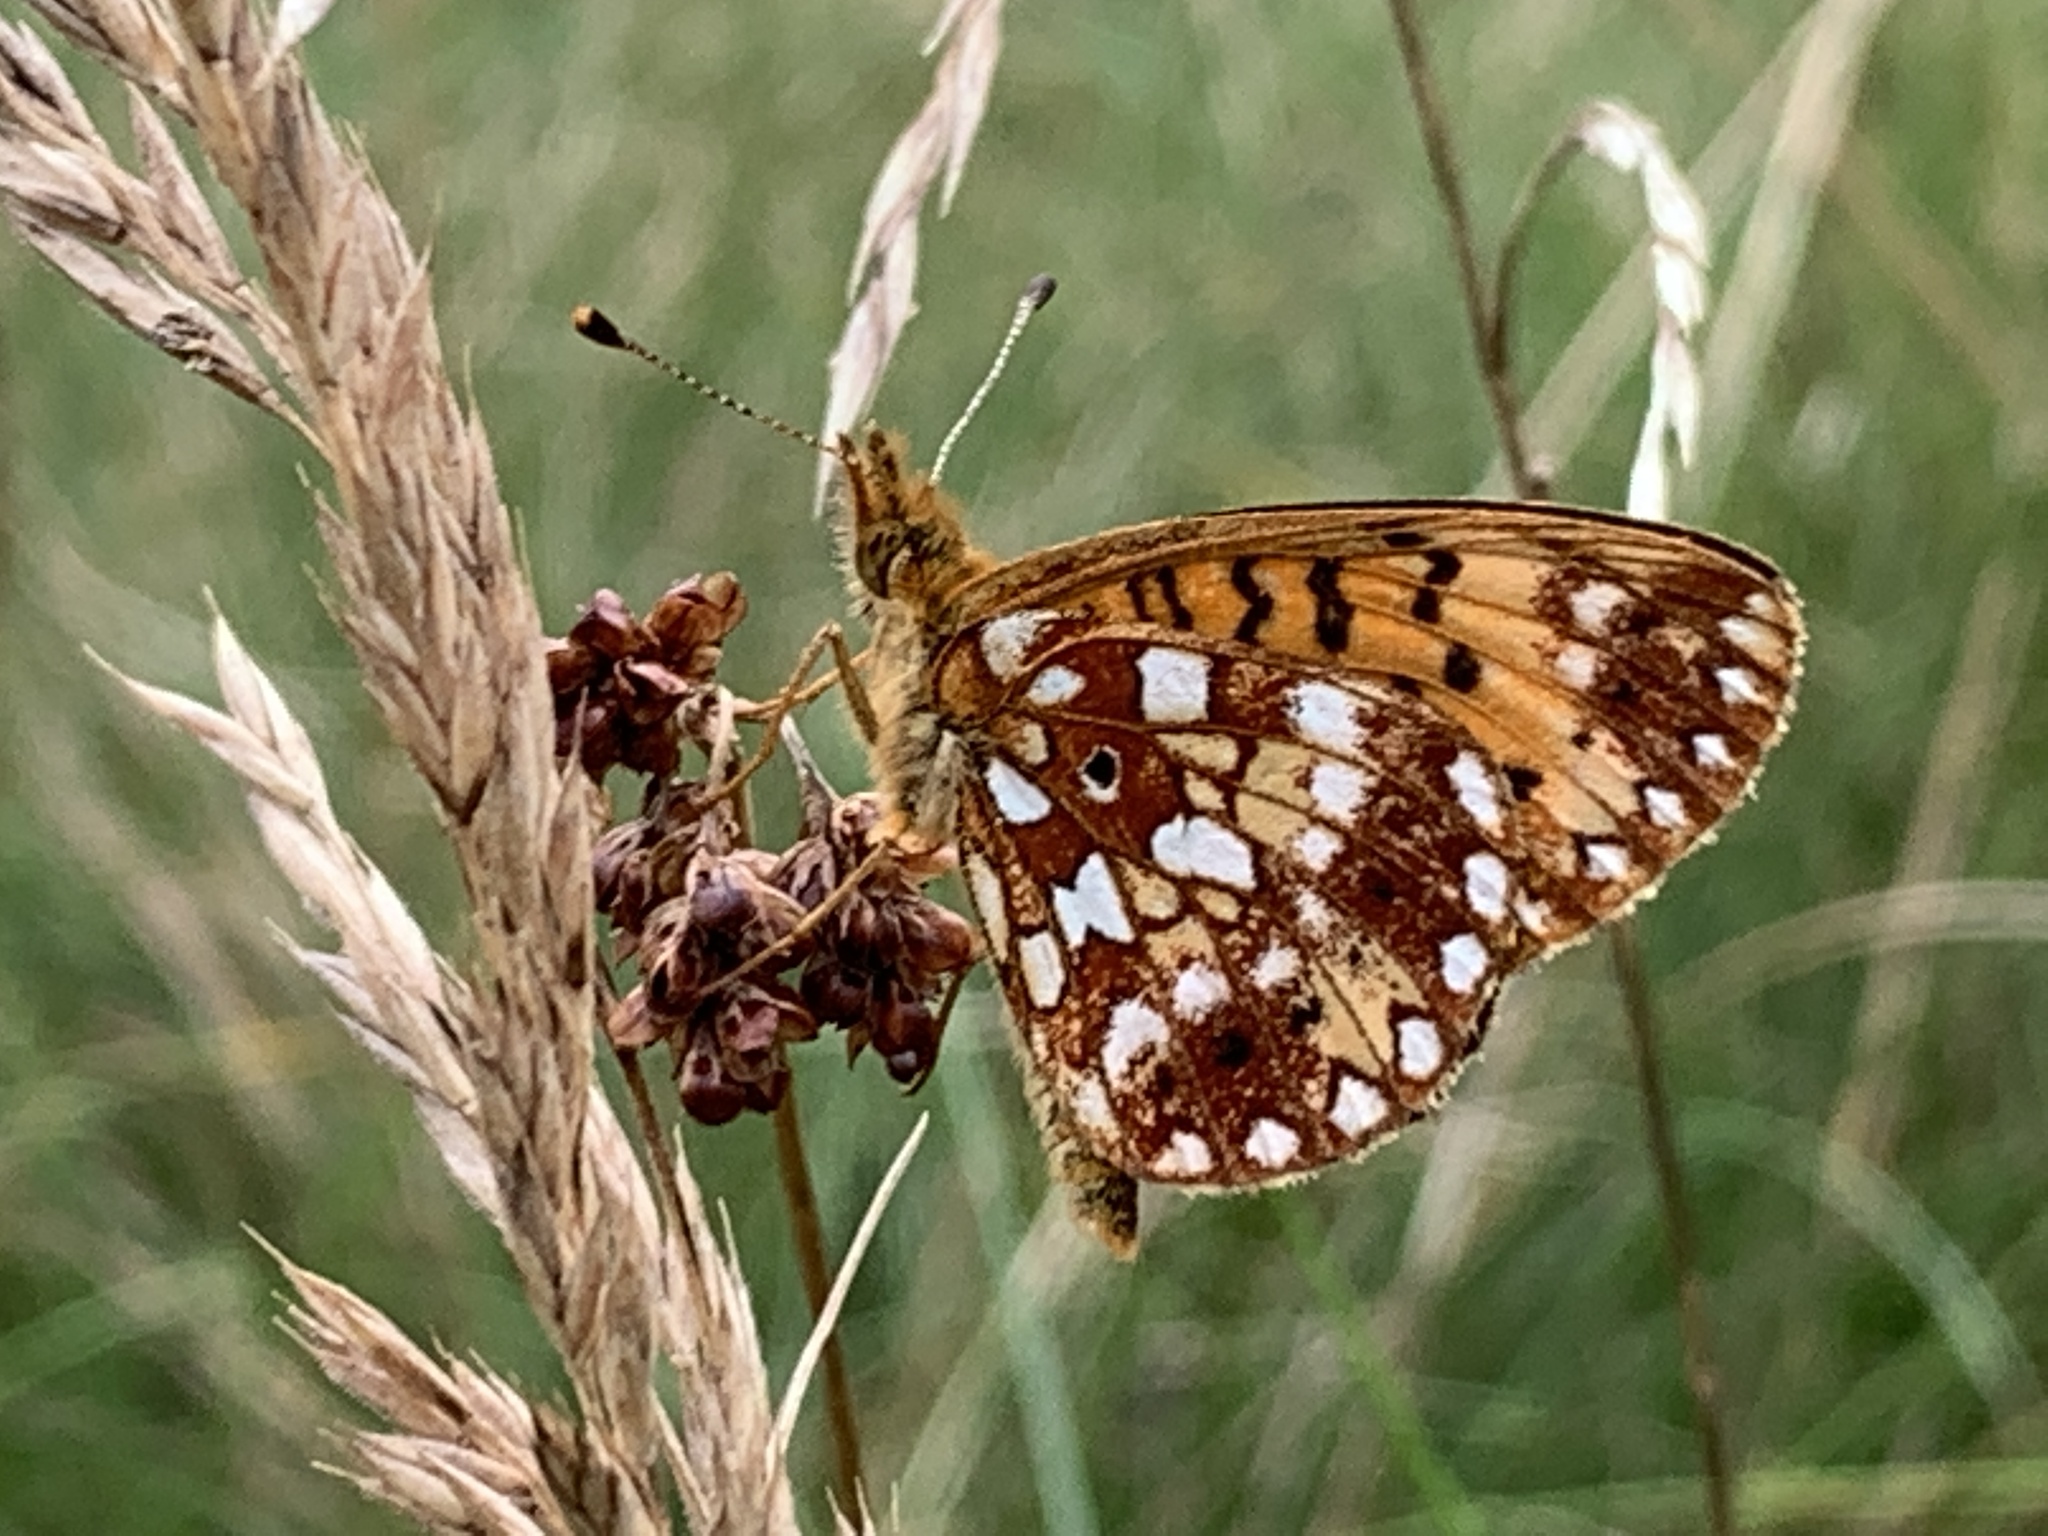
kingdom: Animalia
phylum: Arthropoda
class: Insecta
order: Lepidoptera
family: Nymphalidae
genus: Boloria
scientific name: Boloria
